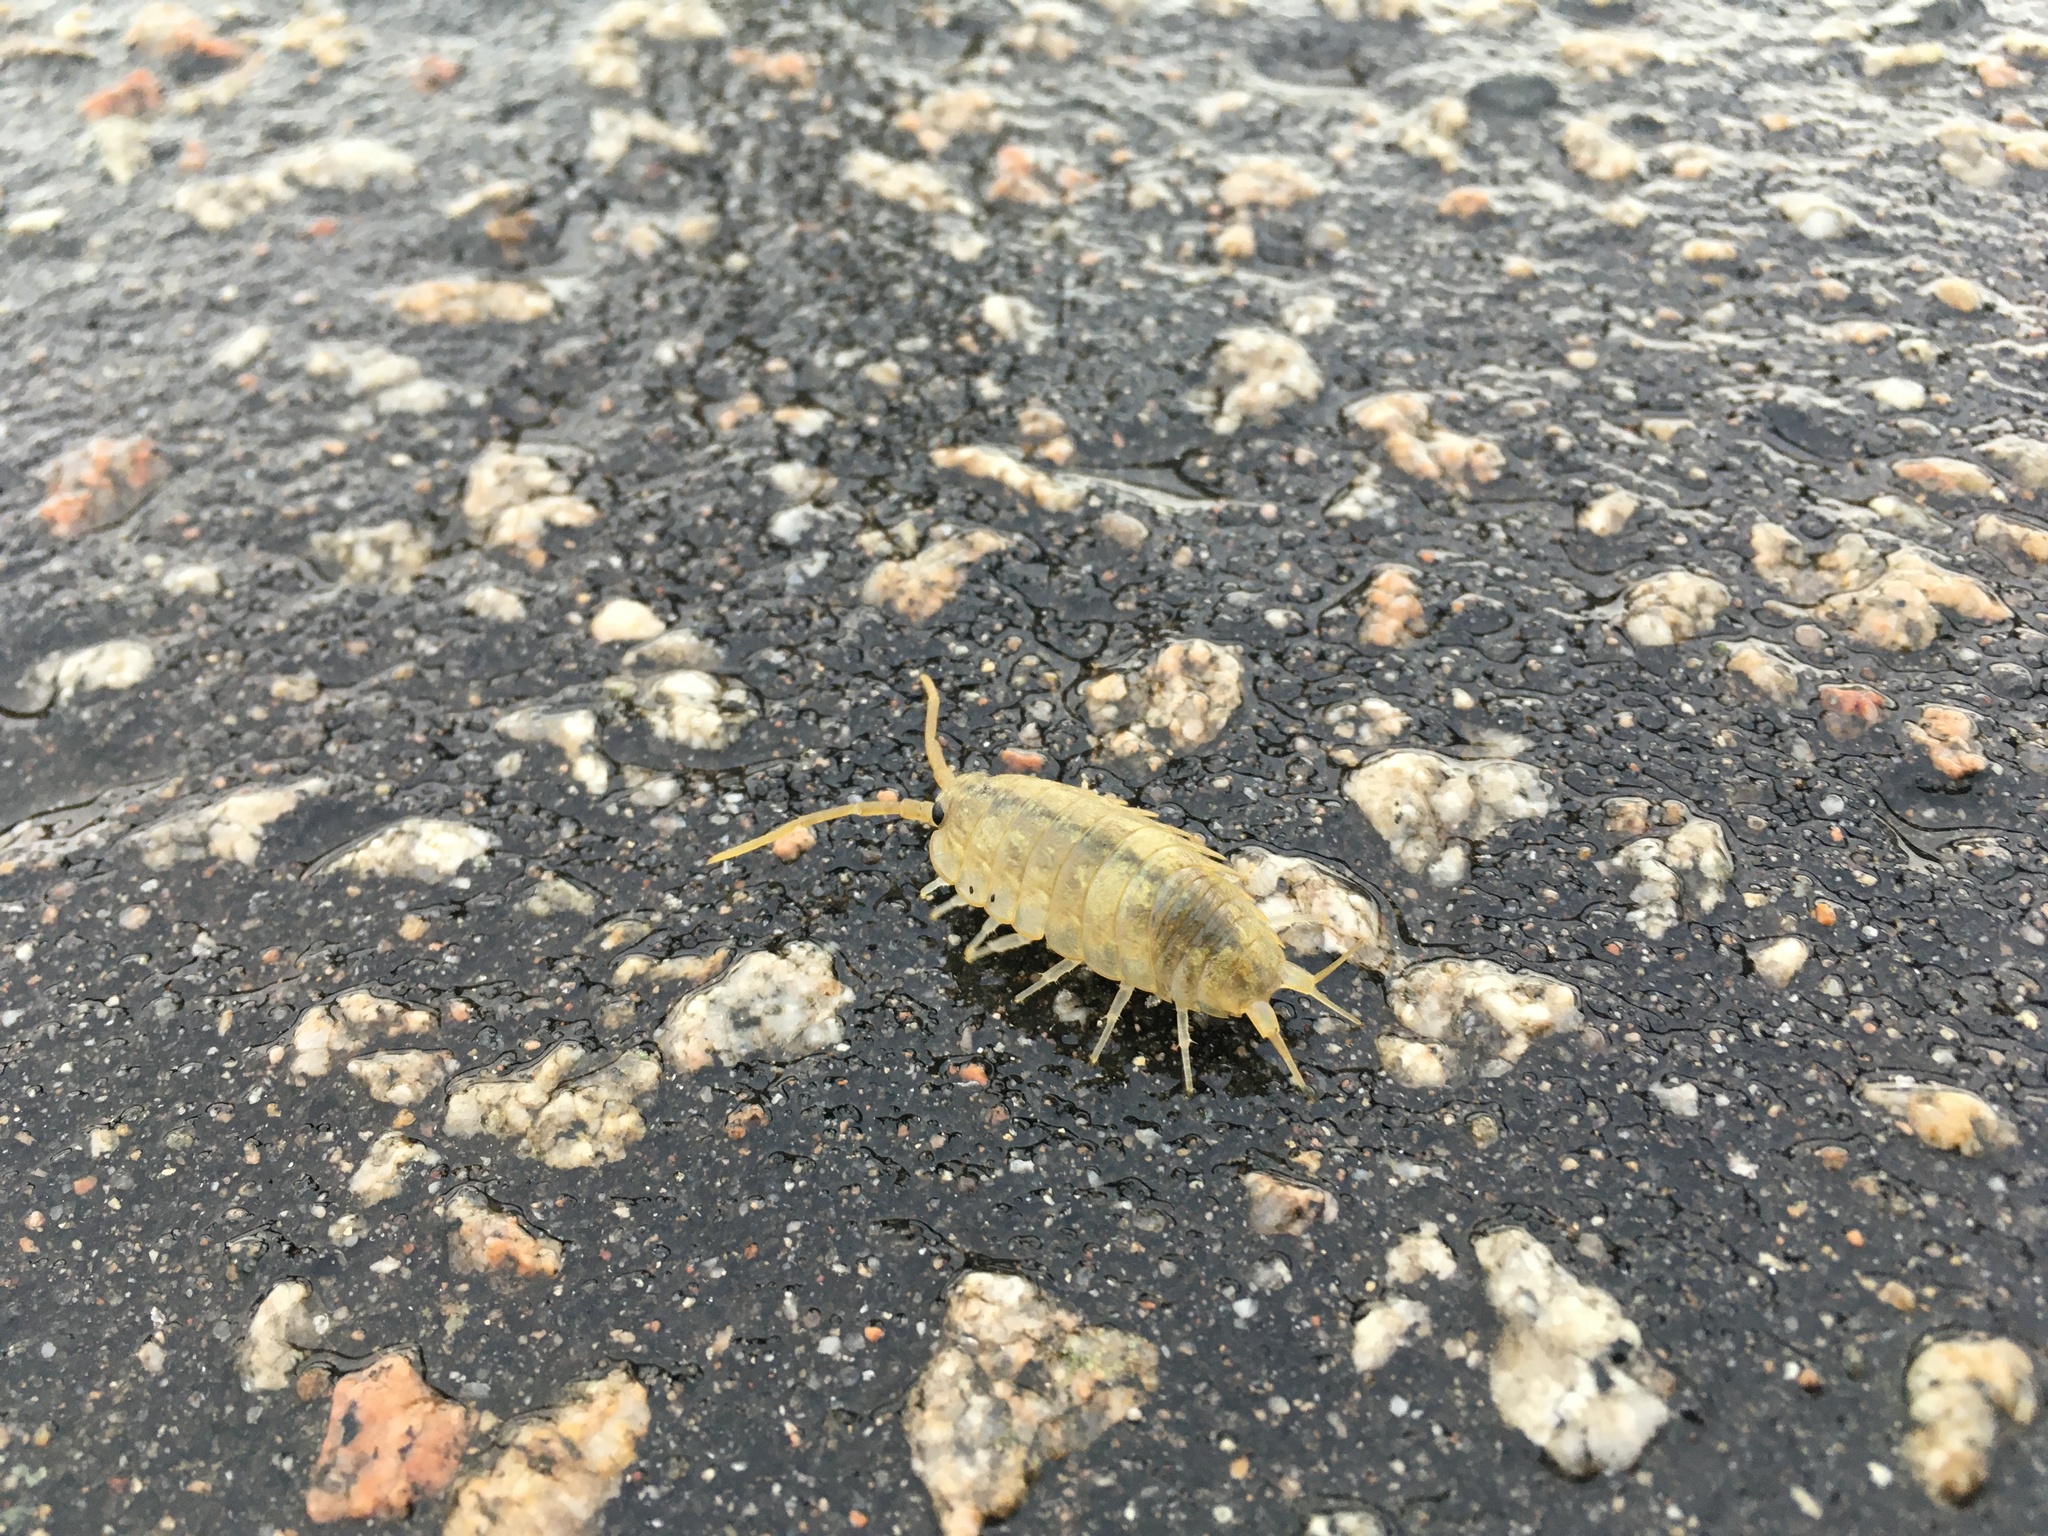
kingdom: Animalia
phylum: Arthropoda
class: Malacostraca
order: Isopoda
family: Ligiidae
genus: Ligia
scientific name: Ligia oceanica
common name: Sea slater
